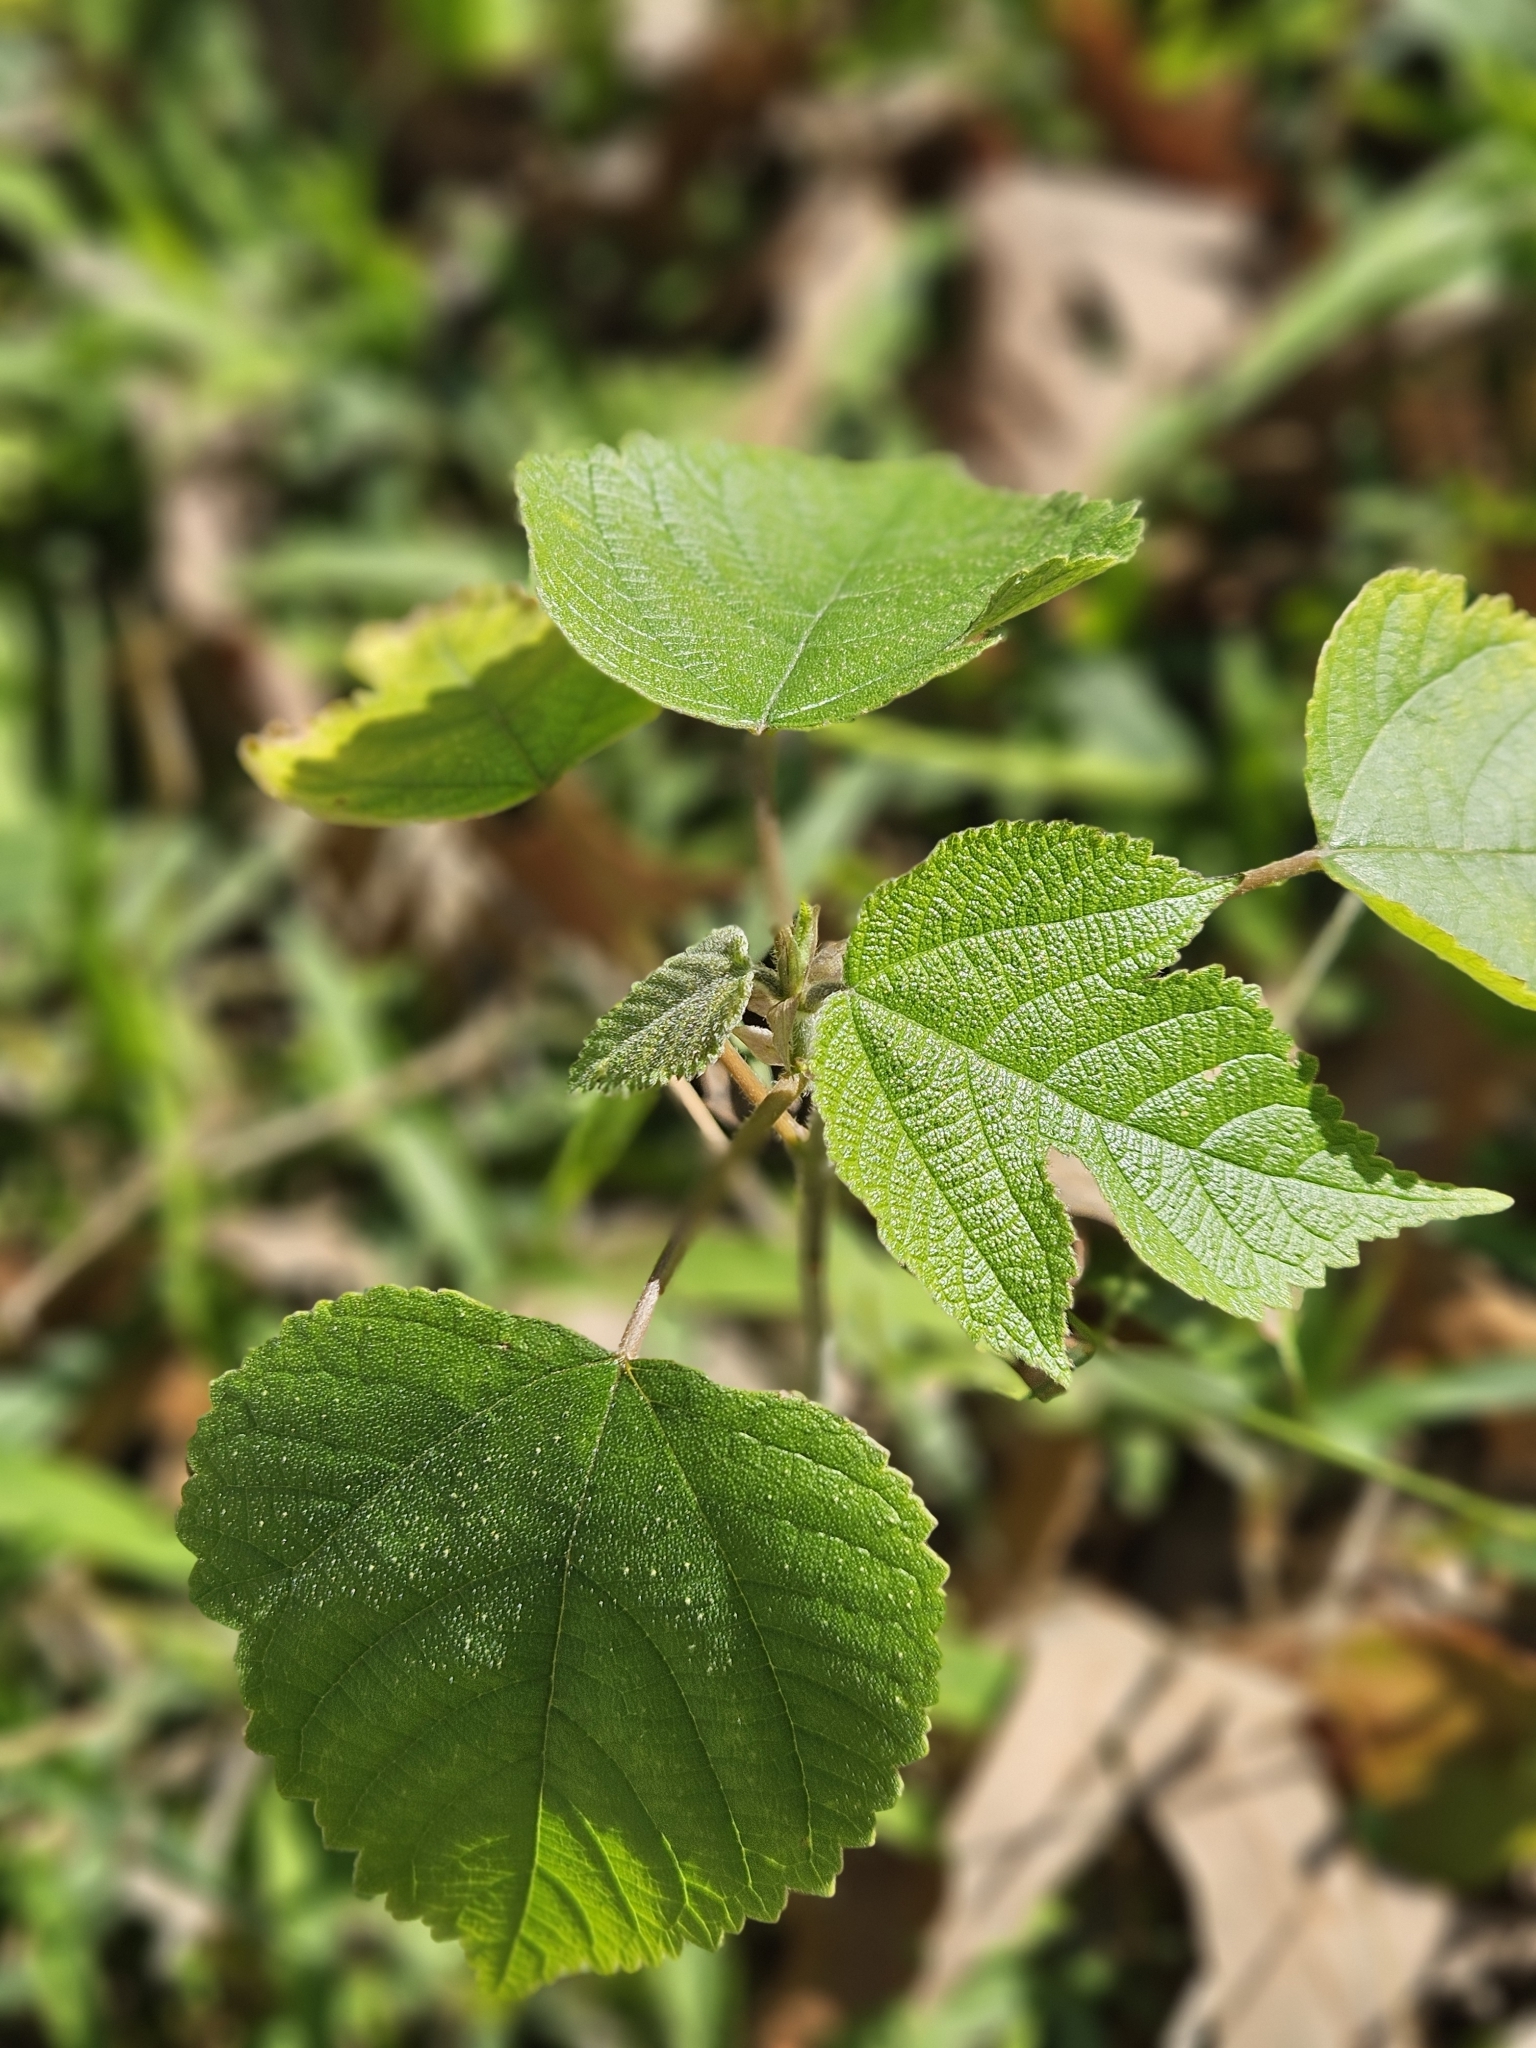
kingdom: Plantae
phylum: Tracheophyta
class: Magnoliopsida
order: Rosales
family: Moraceae
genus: Broussonetia
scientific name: Broussonetia papyrifera
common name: Paper mulberry
